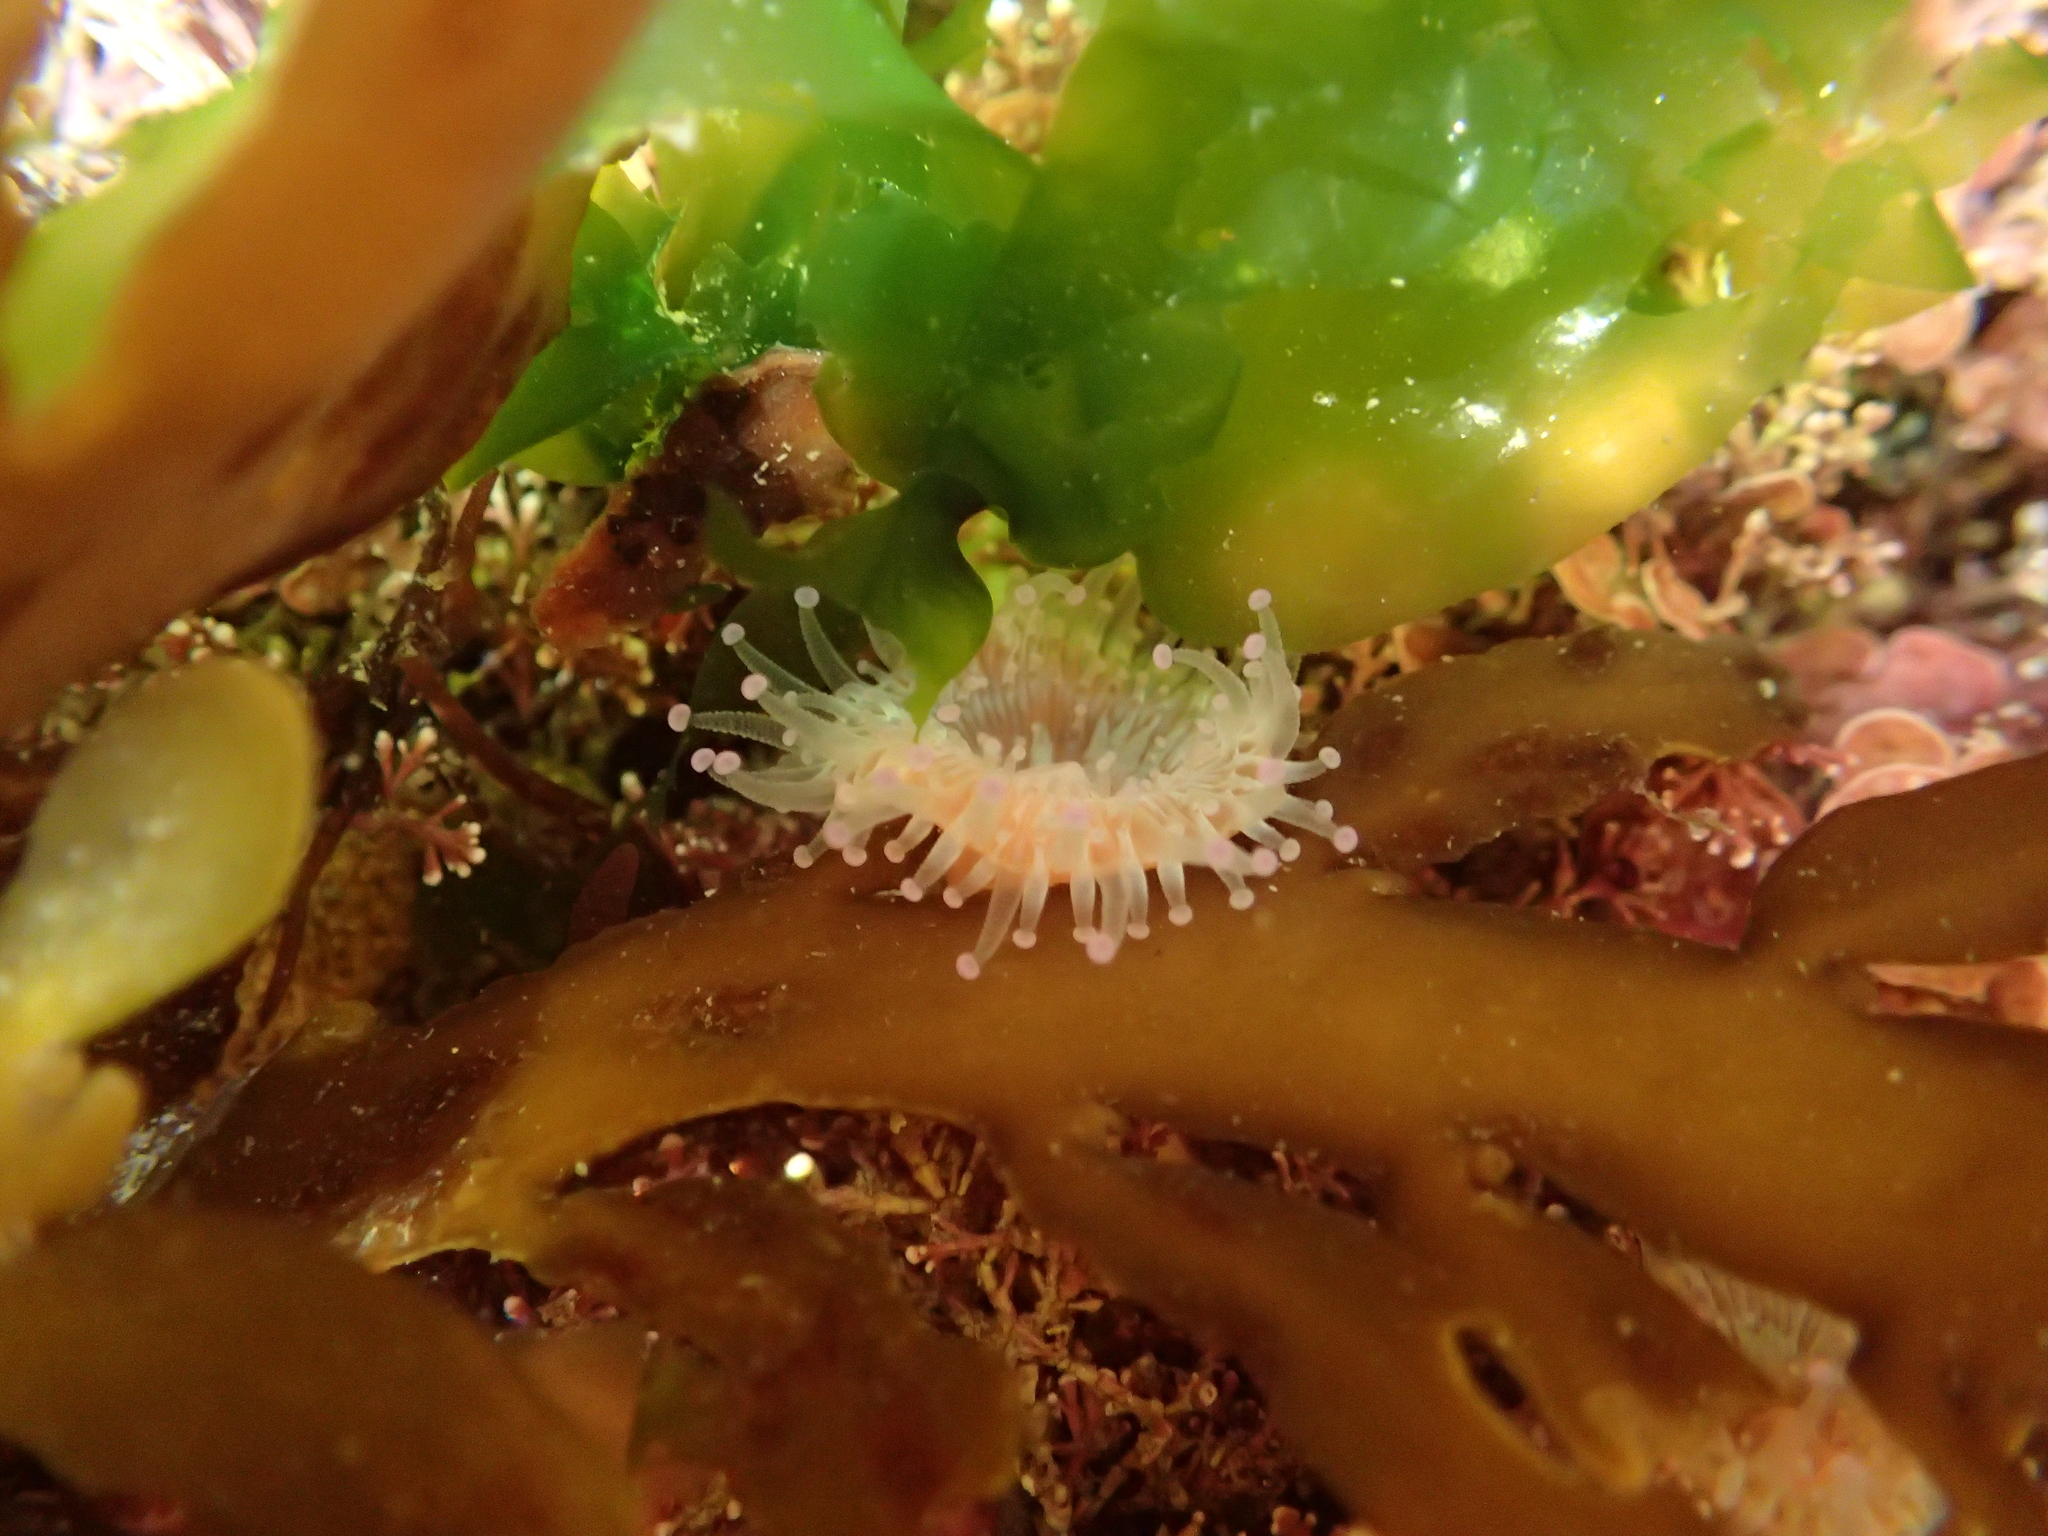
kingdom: Animalia
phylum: Cnidaria
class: Anthozoa
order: Corallimorpharia
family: Corallimorphidae
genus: Corynactis
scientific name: Corynactis australis
